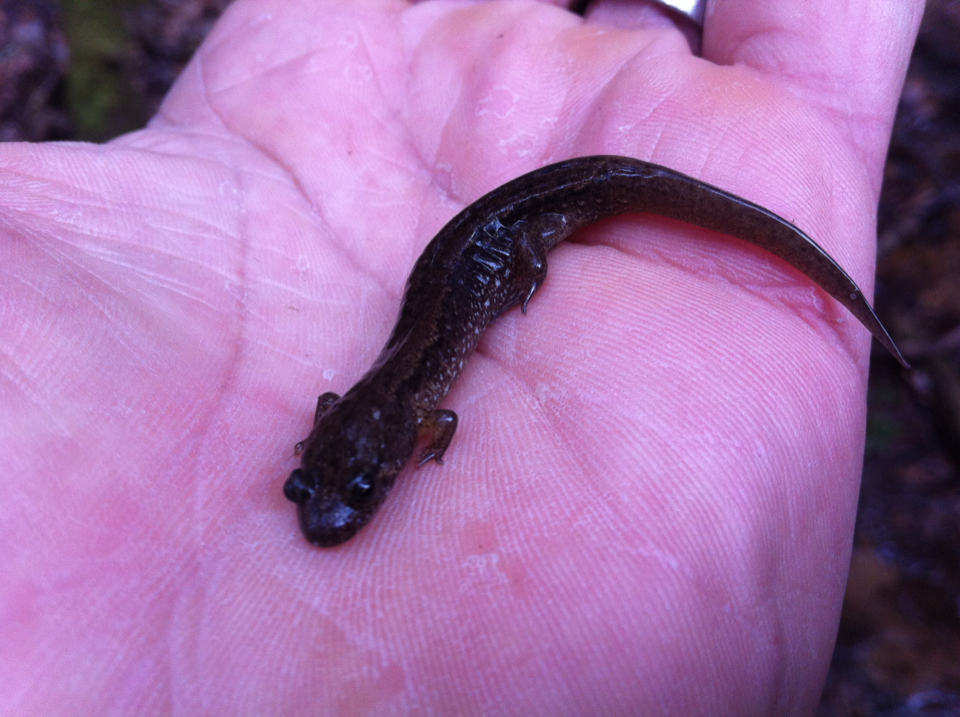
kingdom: Animalia
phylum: Chordata
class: Amphibia
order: Caudata
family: Plethodontidae
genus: Desmognathus
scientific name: Desmognathus fuscus
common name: Northern dusky salamander
